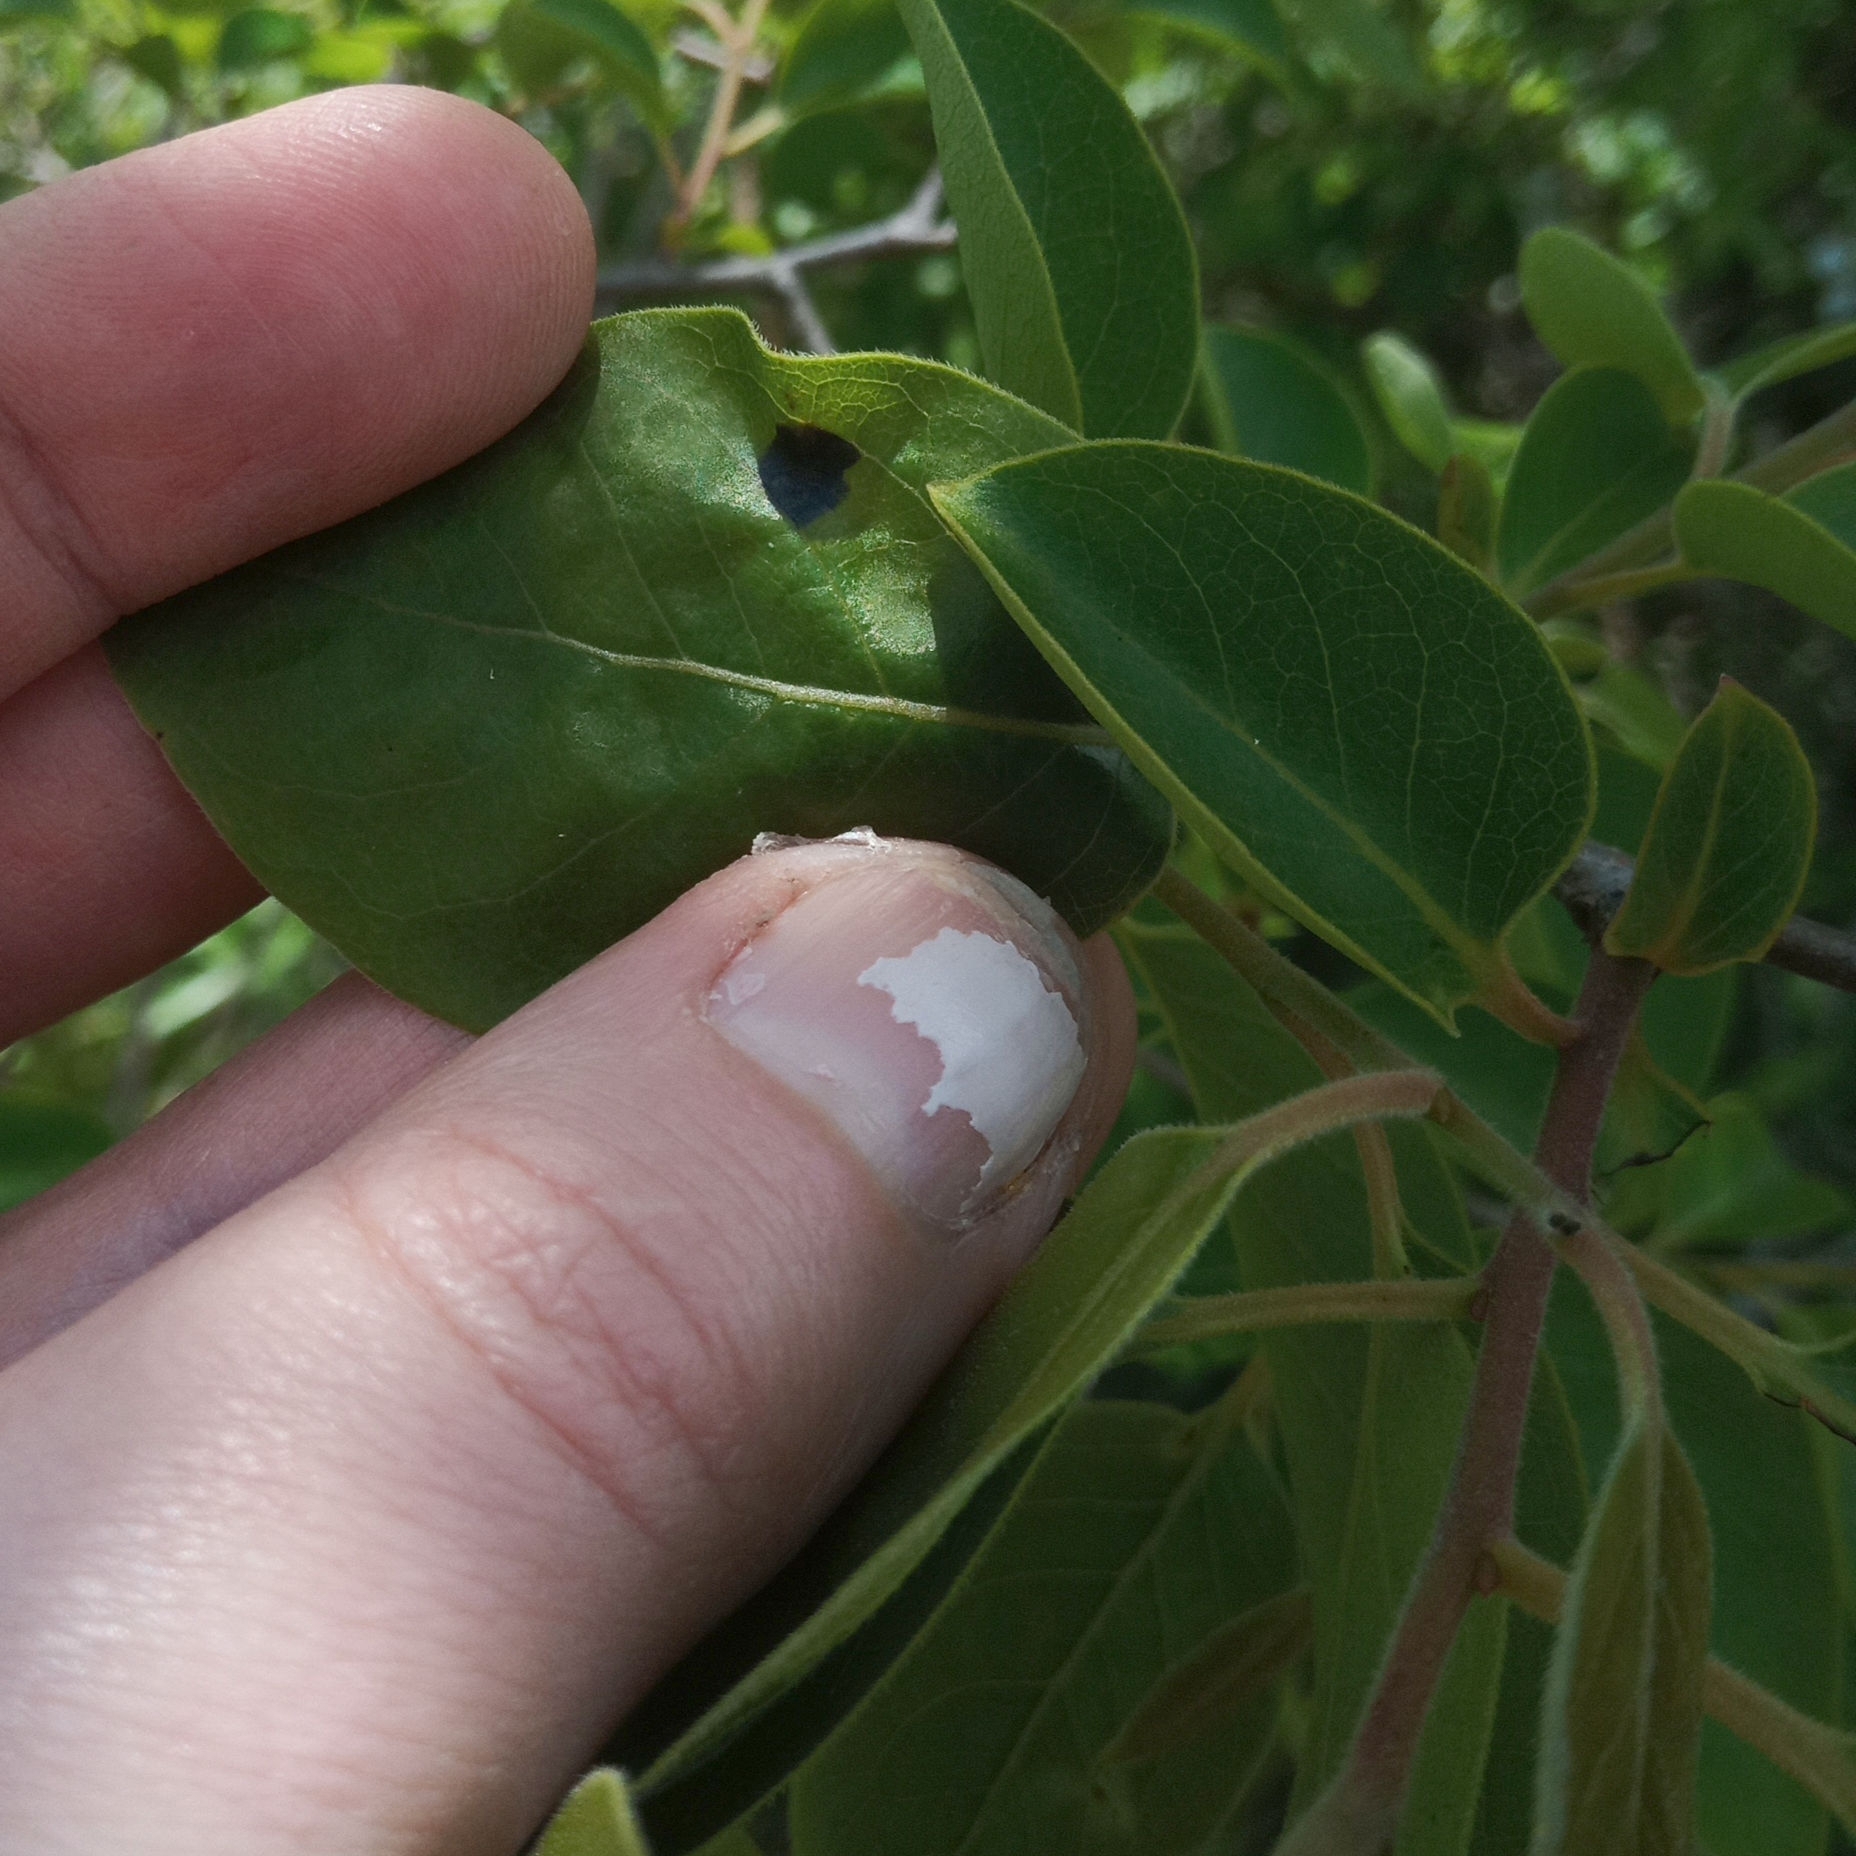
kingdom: Plantae
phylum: Tracheophyta
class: Magnoliopsida
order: Ericales
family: Ebenaceae
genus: Diospyros
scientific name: Diospyros virginiana
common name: Persimmon
